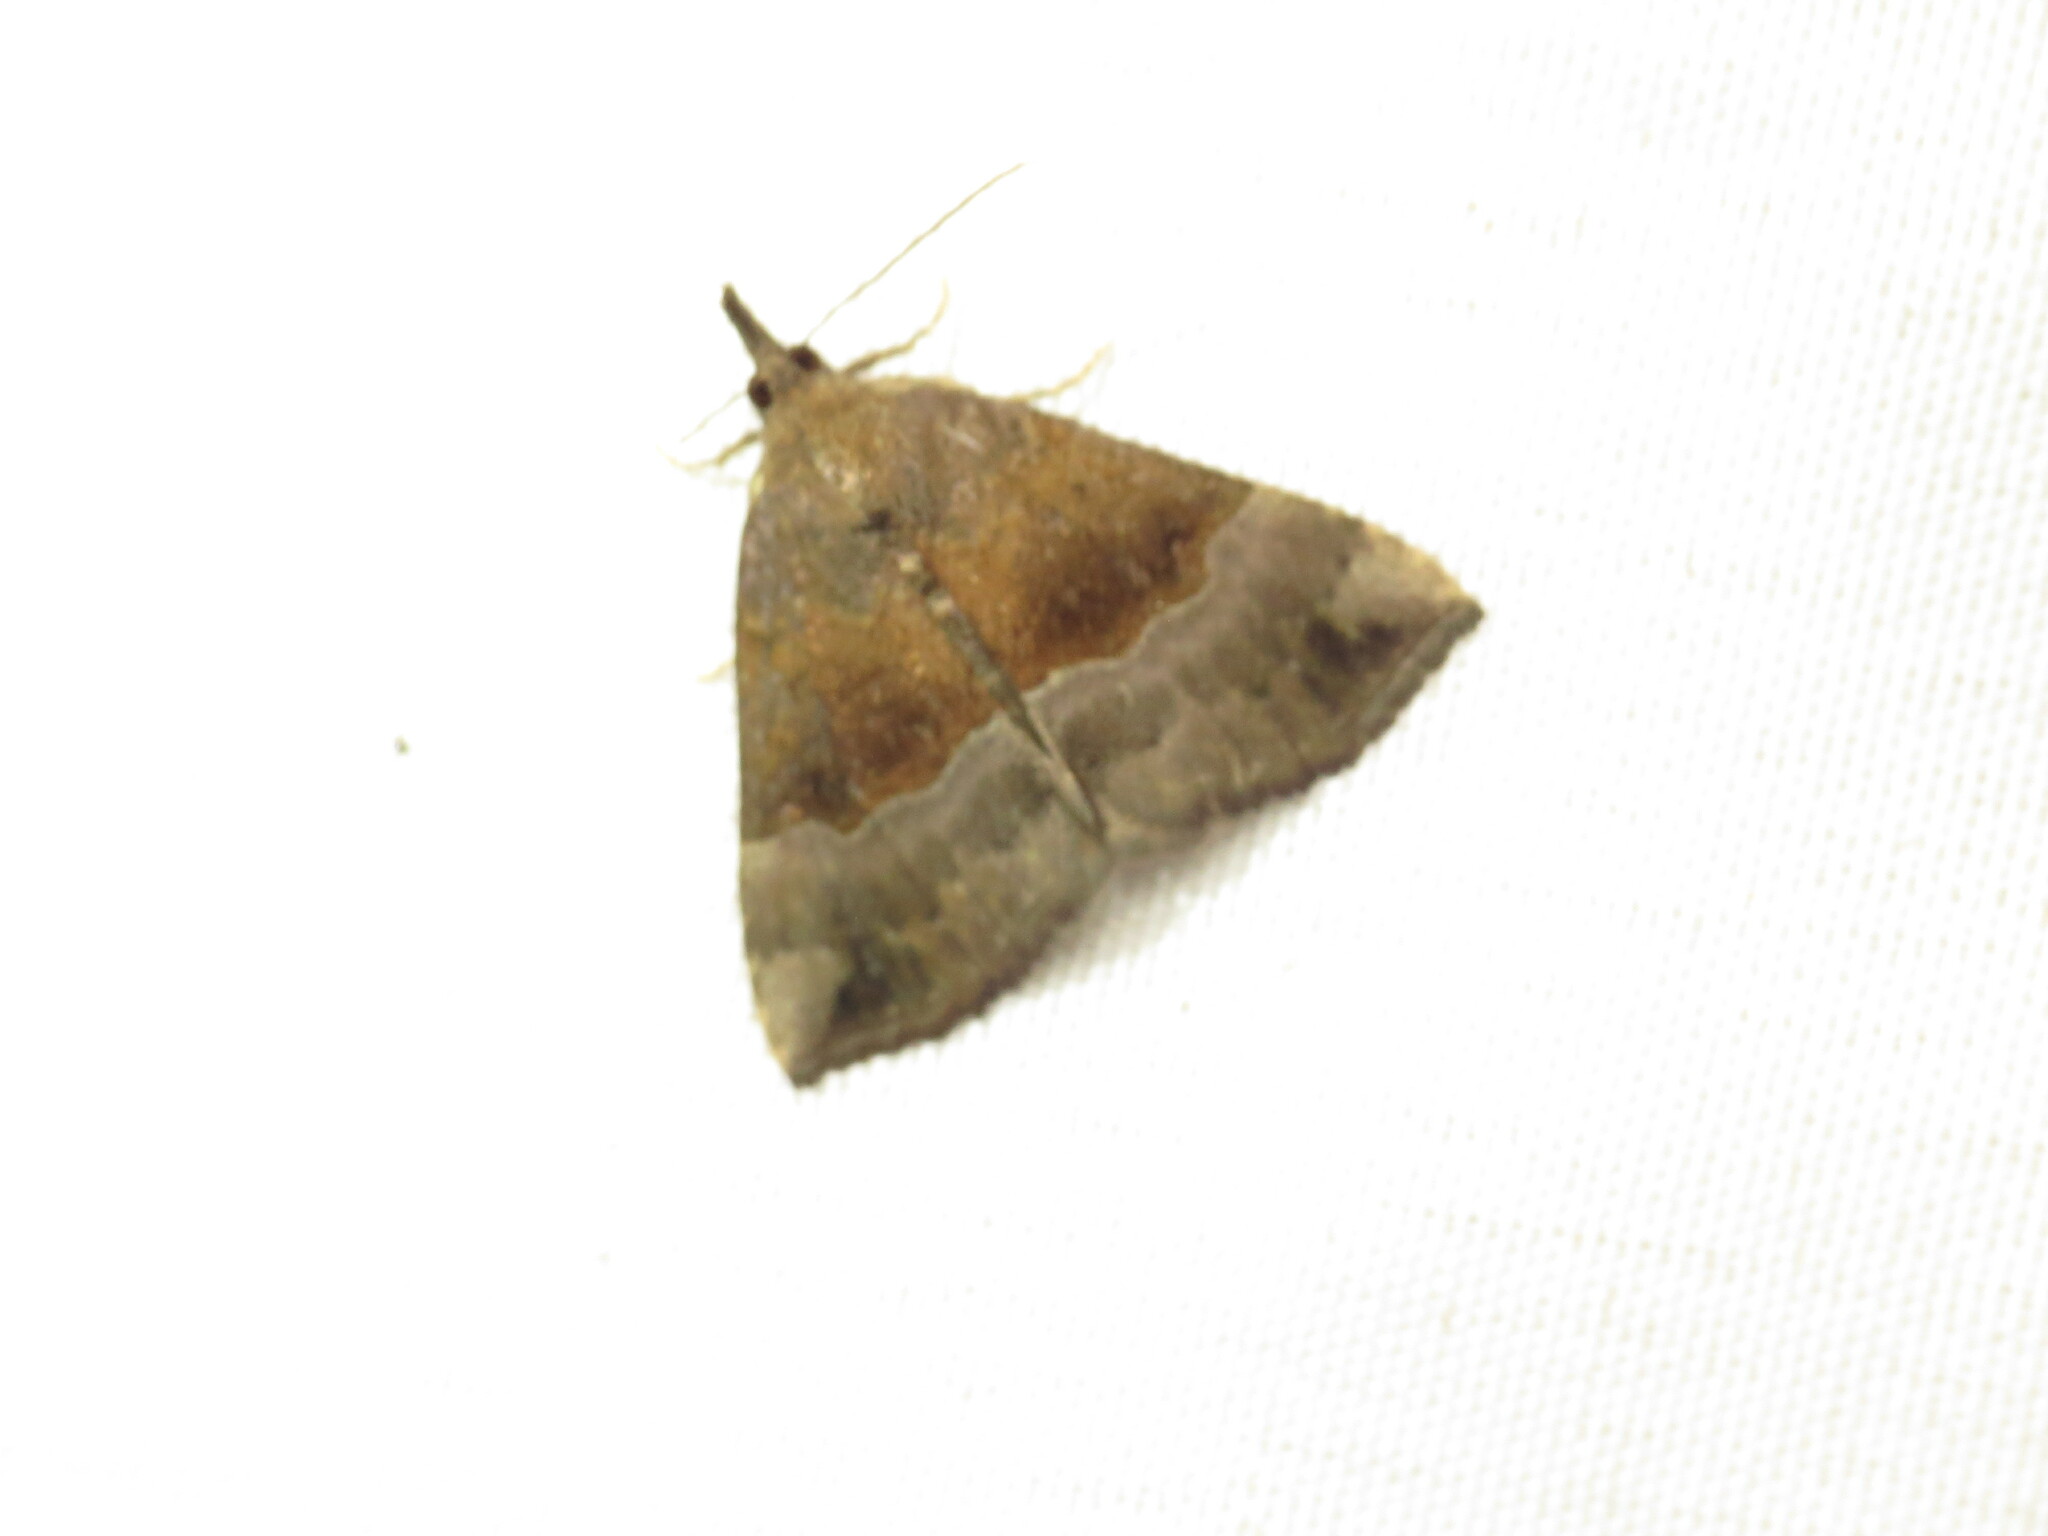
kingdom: Animalia
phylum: Arthropoda
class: Insecta
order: Lepidoptera
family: Erebidae
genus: Hypena
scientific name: Hypena madefactalis
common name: Gray-edged snout
